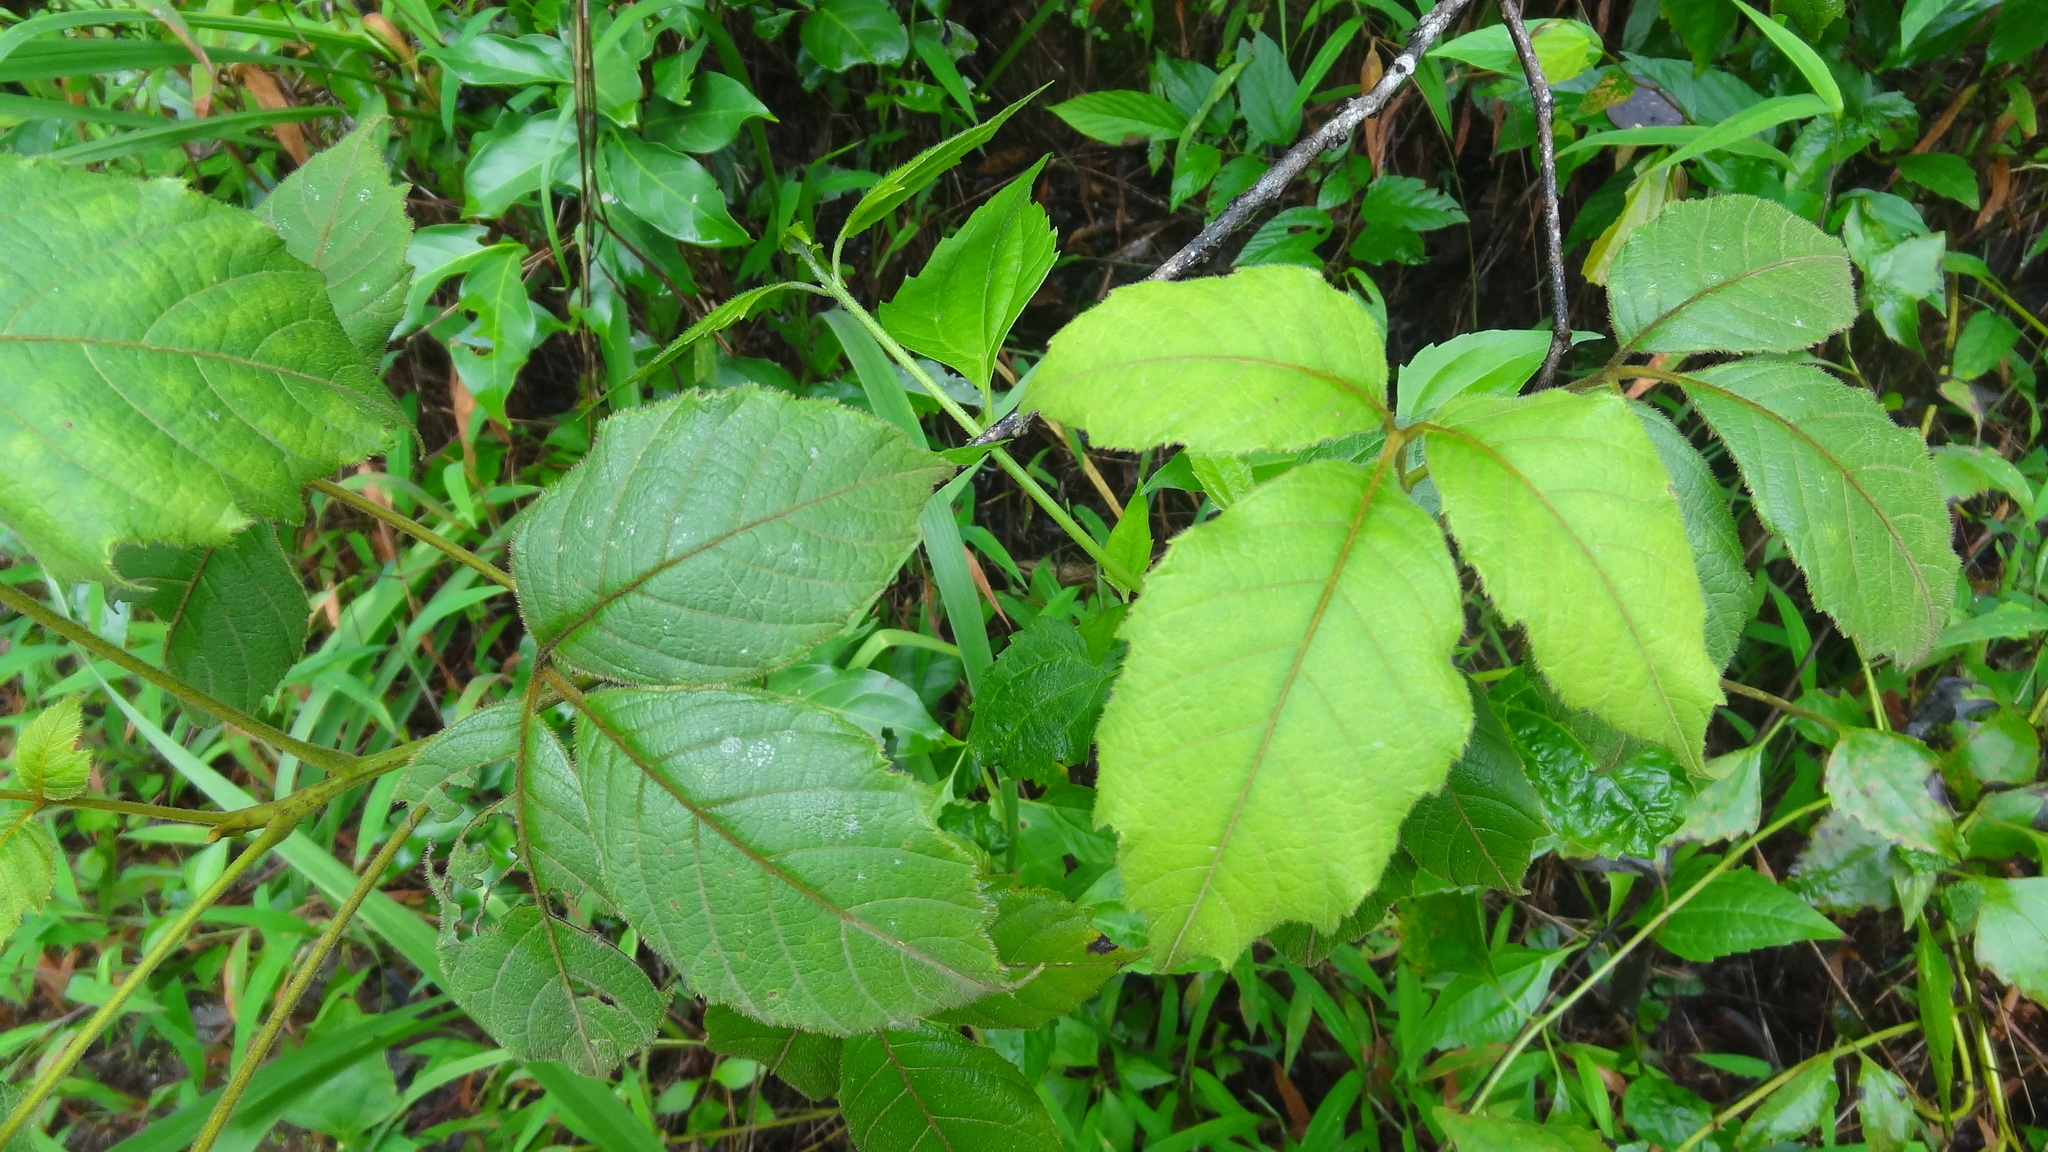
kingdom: Plantae
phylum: Tracheophyta
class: Magnoliopsida
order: Sapindales
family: Sapindaceae
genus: Allophylus
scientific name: Allophylus cobbe
